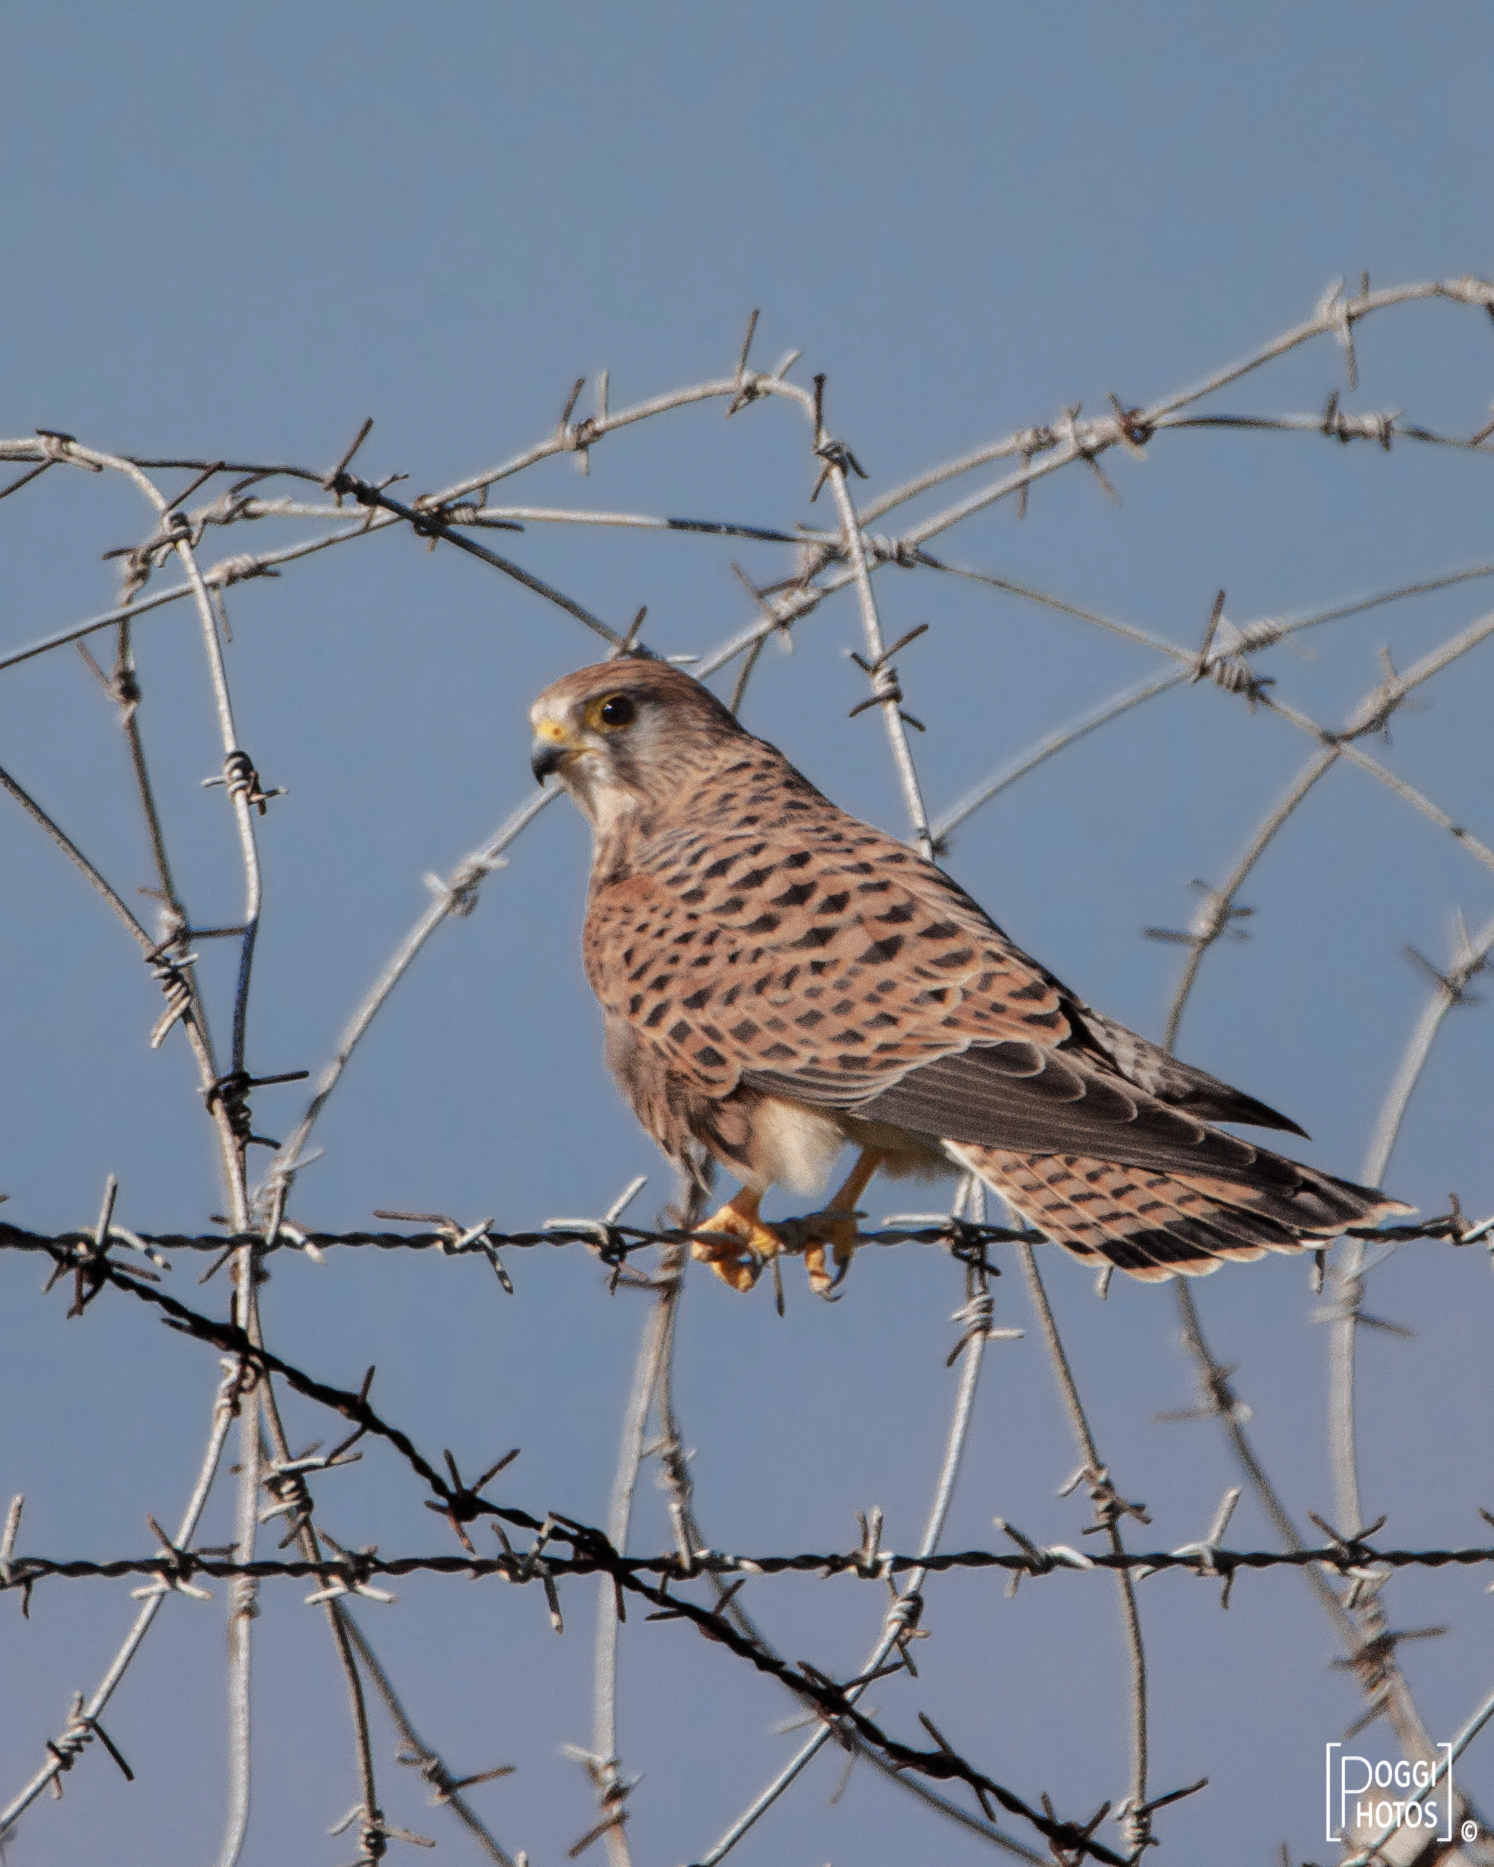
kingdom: Animalia
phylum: Chordata
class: Aves
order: Falconiformes
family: Falconidae
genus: Falco
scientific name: Falco tinnunculus
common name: Common kestrel
